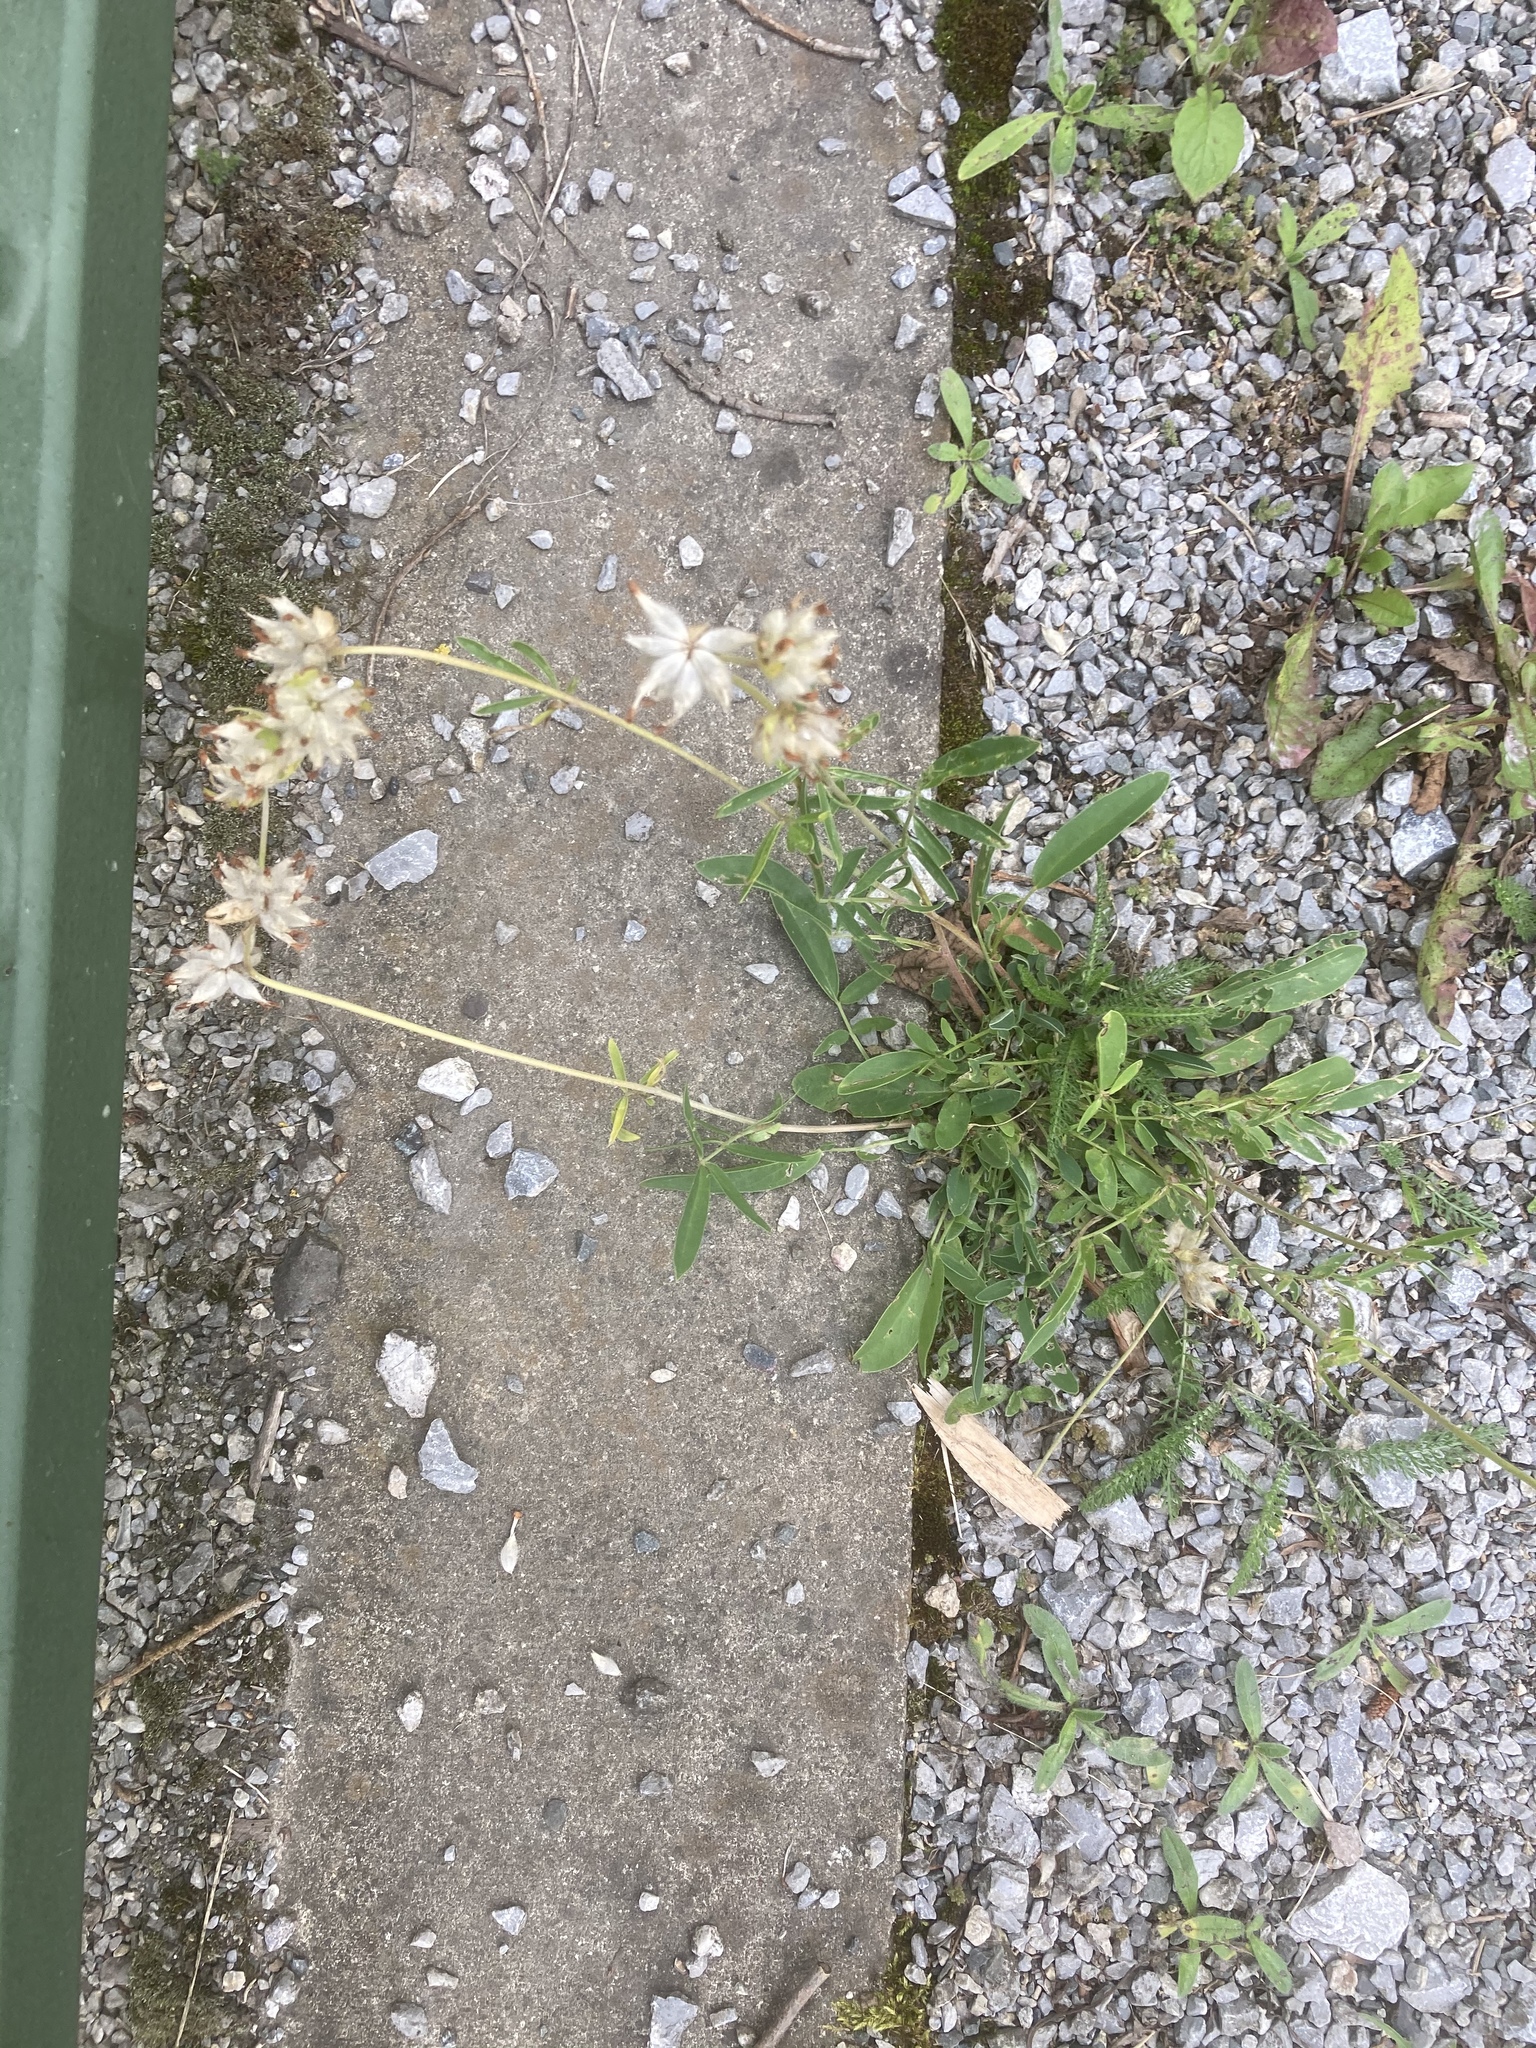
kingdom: Plantae
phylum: Tracheophyta
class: Magnoliopsida
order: Fabales
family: Fabaceae
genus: Anthyllis
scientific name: Anthyllis vulneraria
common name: Kidney vetch
